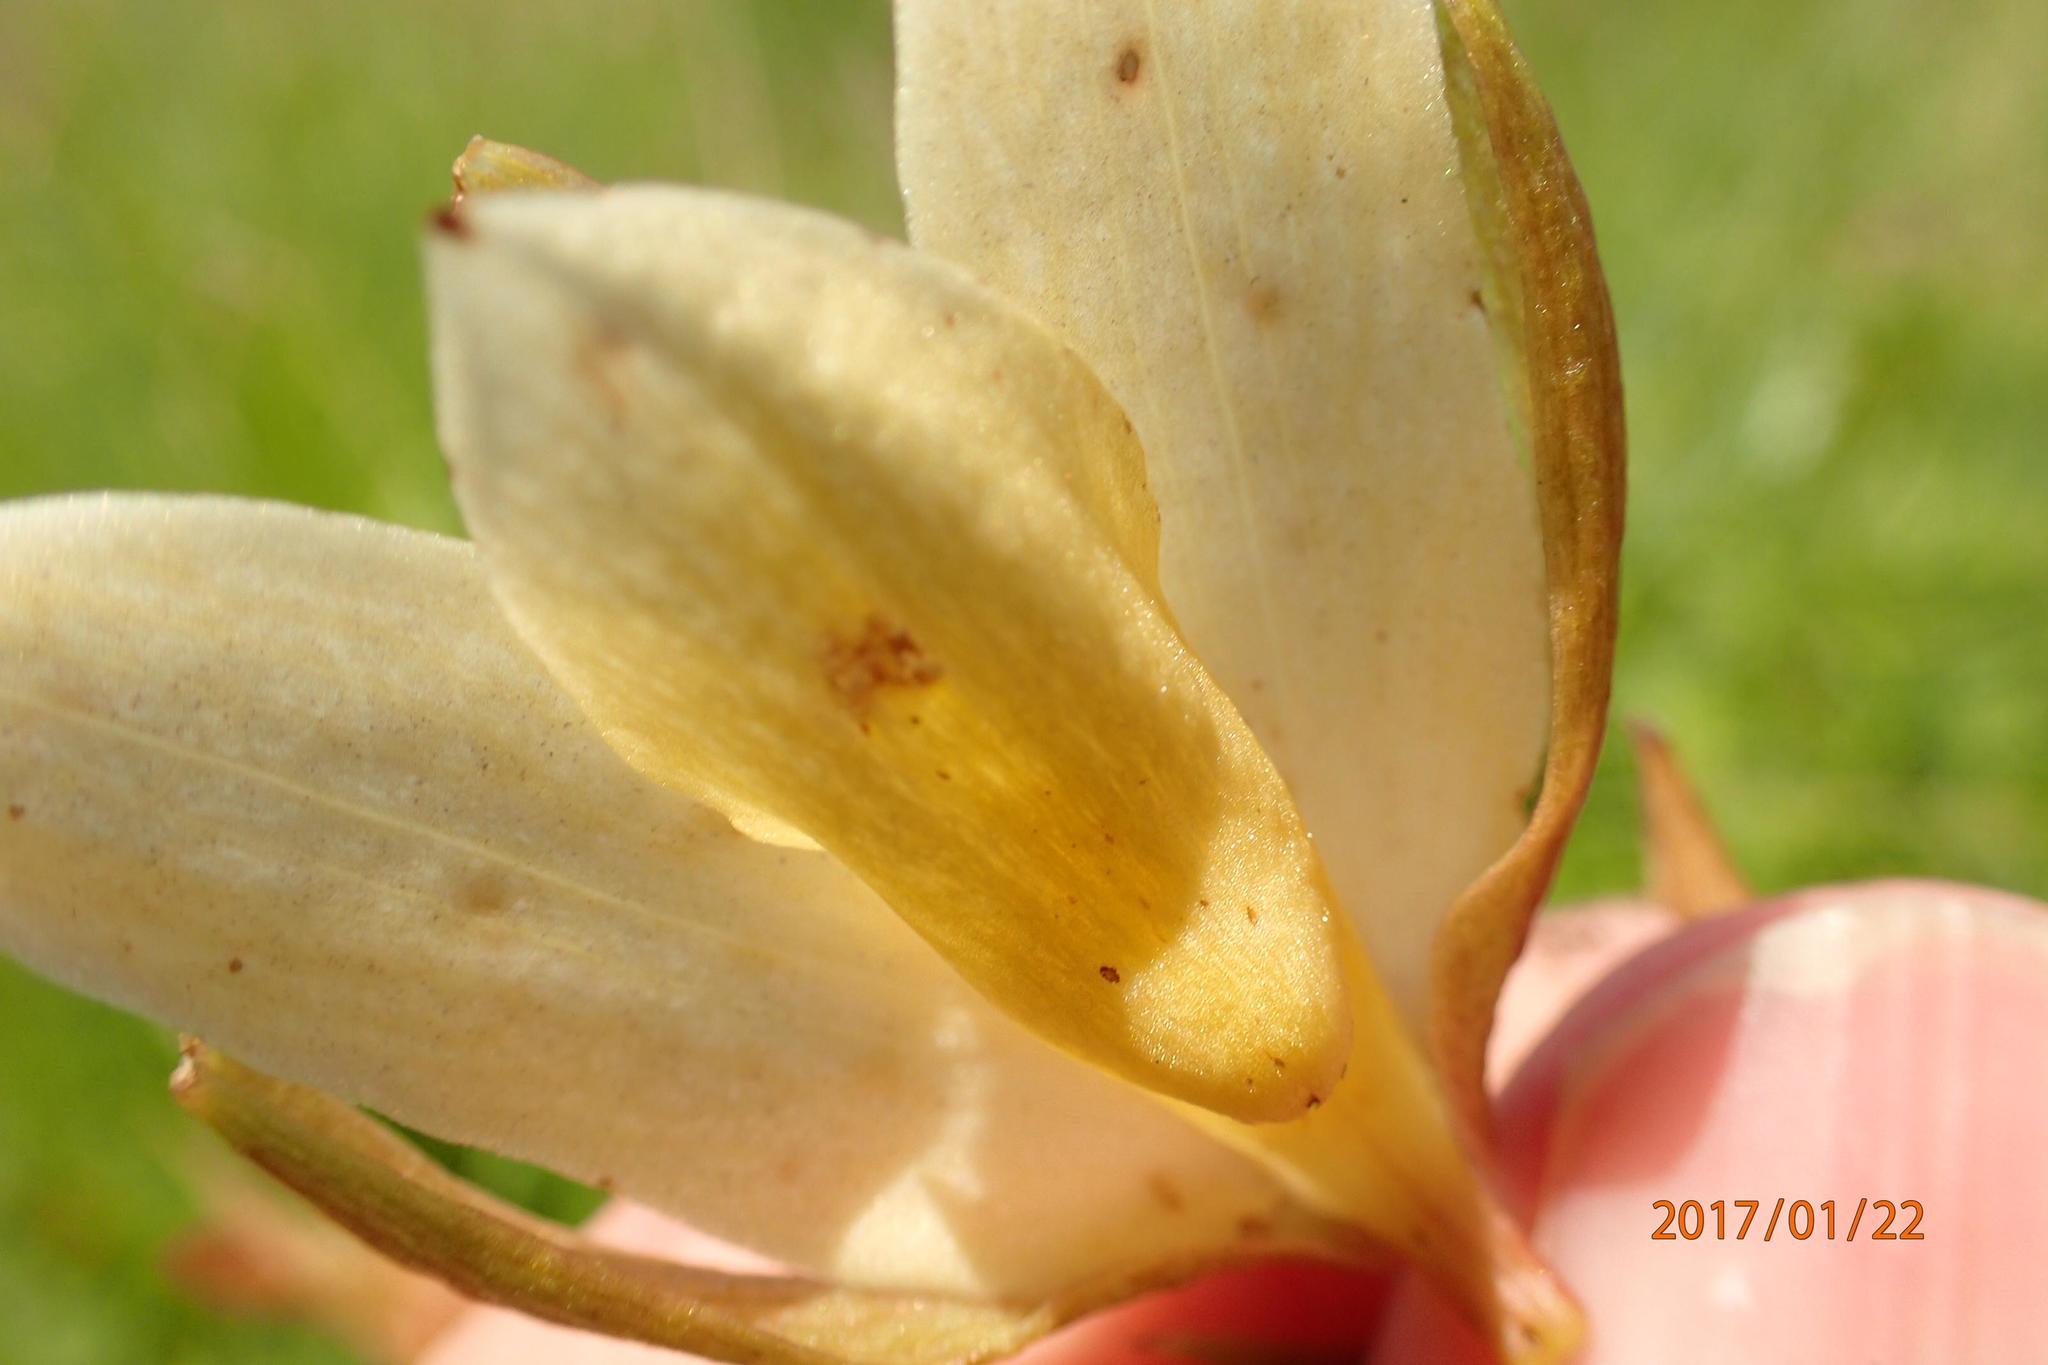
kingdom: Plantae
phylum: Tracheophyta
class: Liliopsida
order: Asparagales
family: Orchidaceae
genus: Eulophia
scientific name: Eulophia calanthoides
